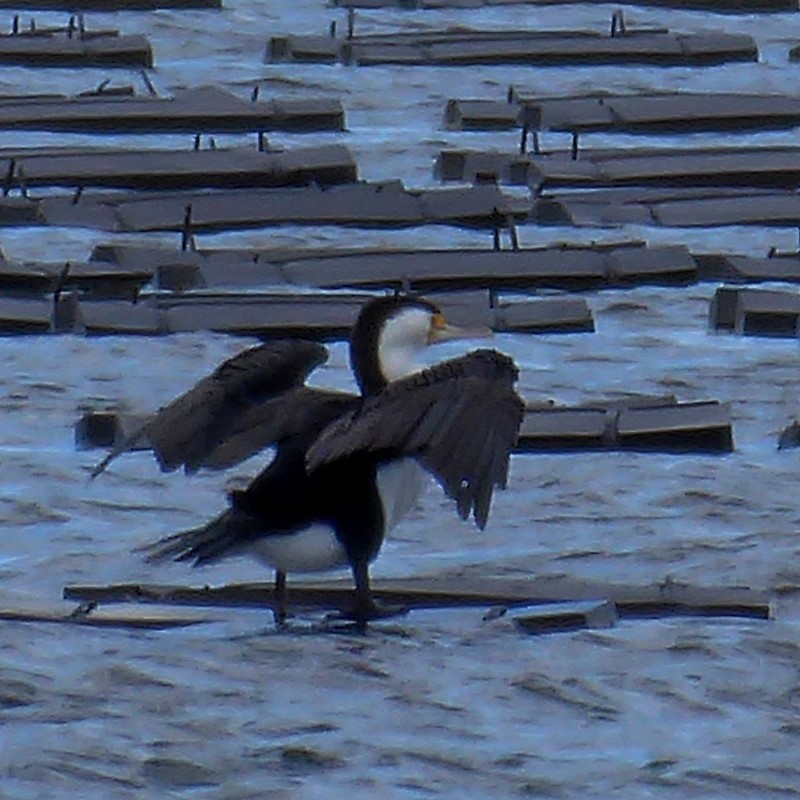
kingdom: Animalia
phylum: Chordata
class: Aves
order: Suliformes
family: Phalacrocoracidae
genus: Phalacrocorax
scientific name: Phalacrocorax varius
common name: Pied cormorant
